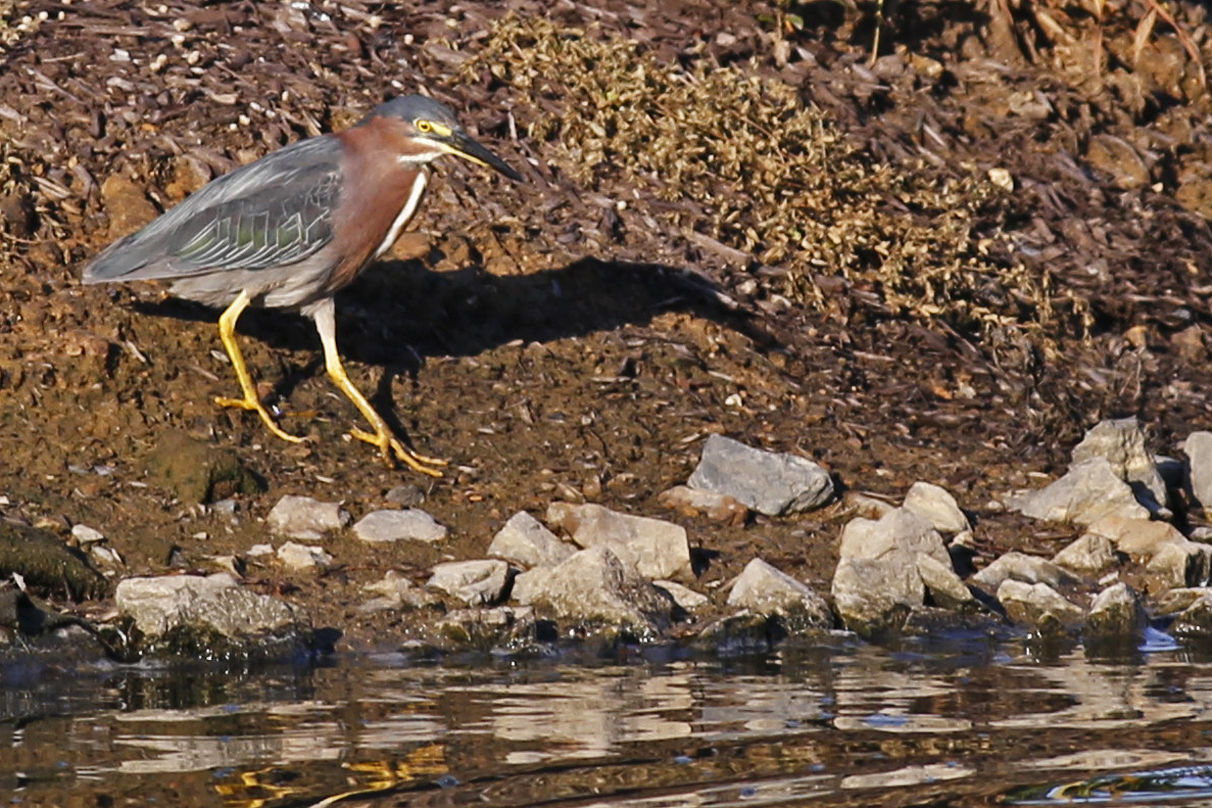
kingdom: Animalia
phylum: Chordata
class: Aves
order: Pelecaniformes
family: Ardeidae
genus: Butorides
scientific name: Butorides virescens
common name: Green heron
